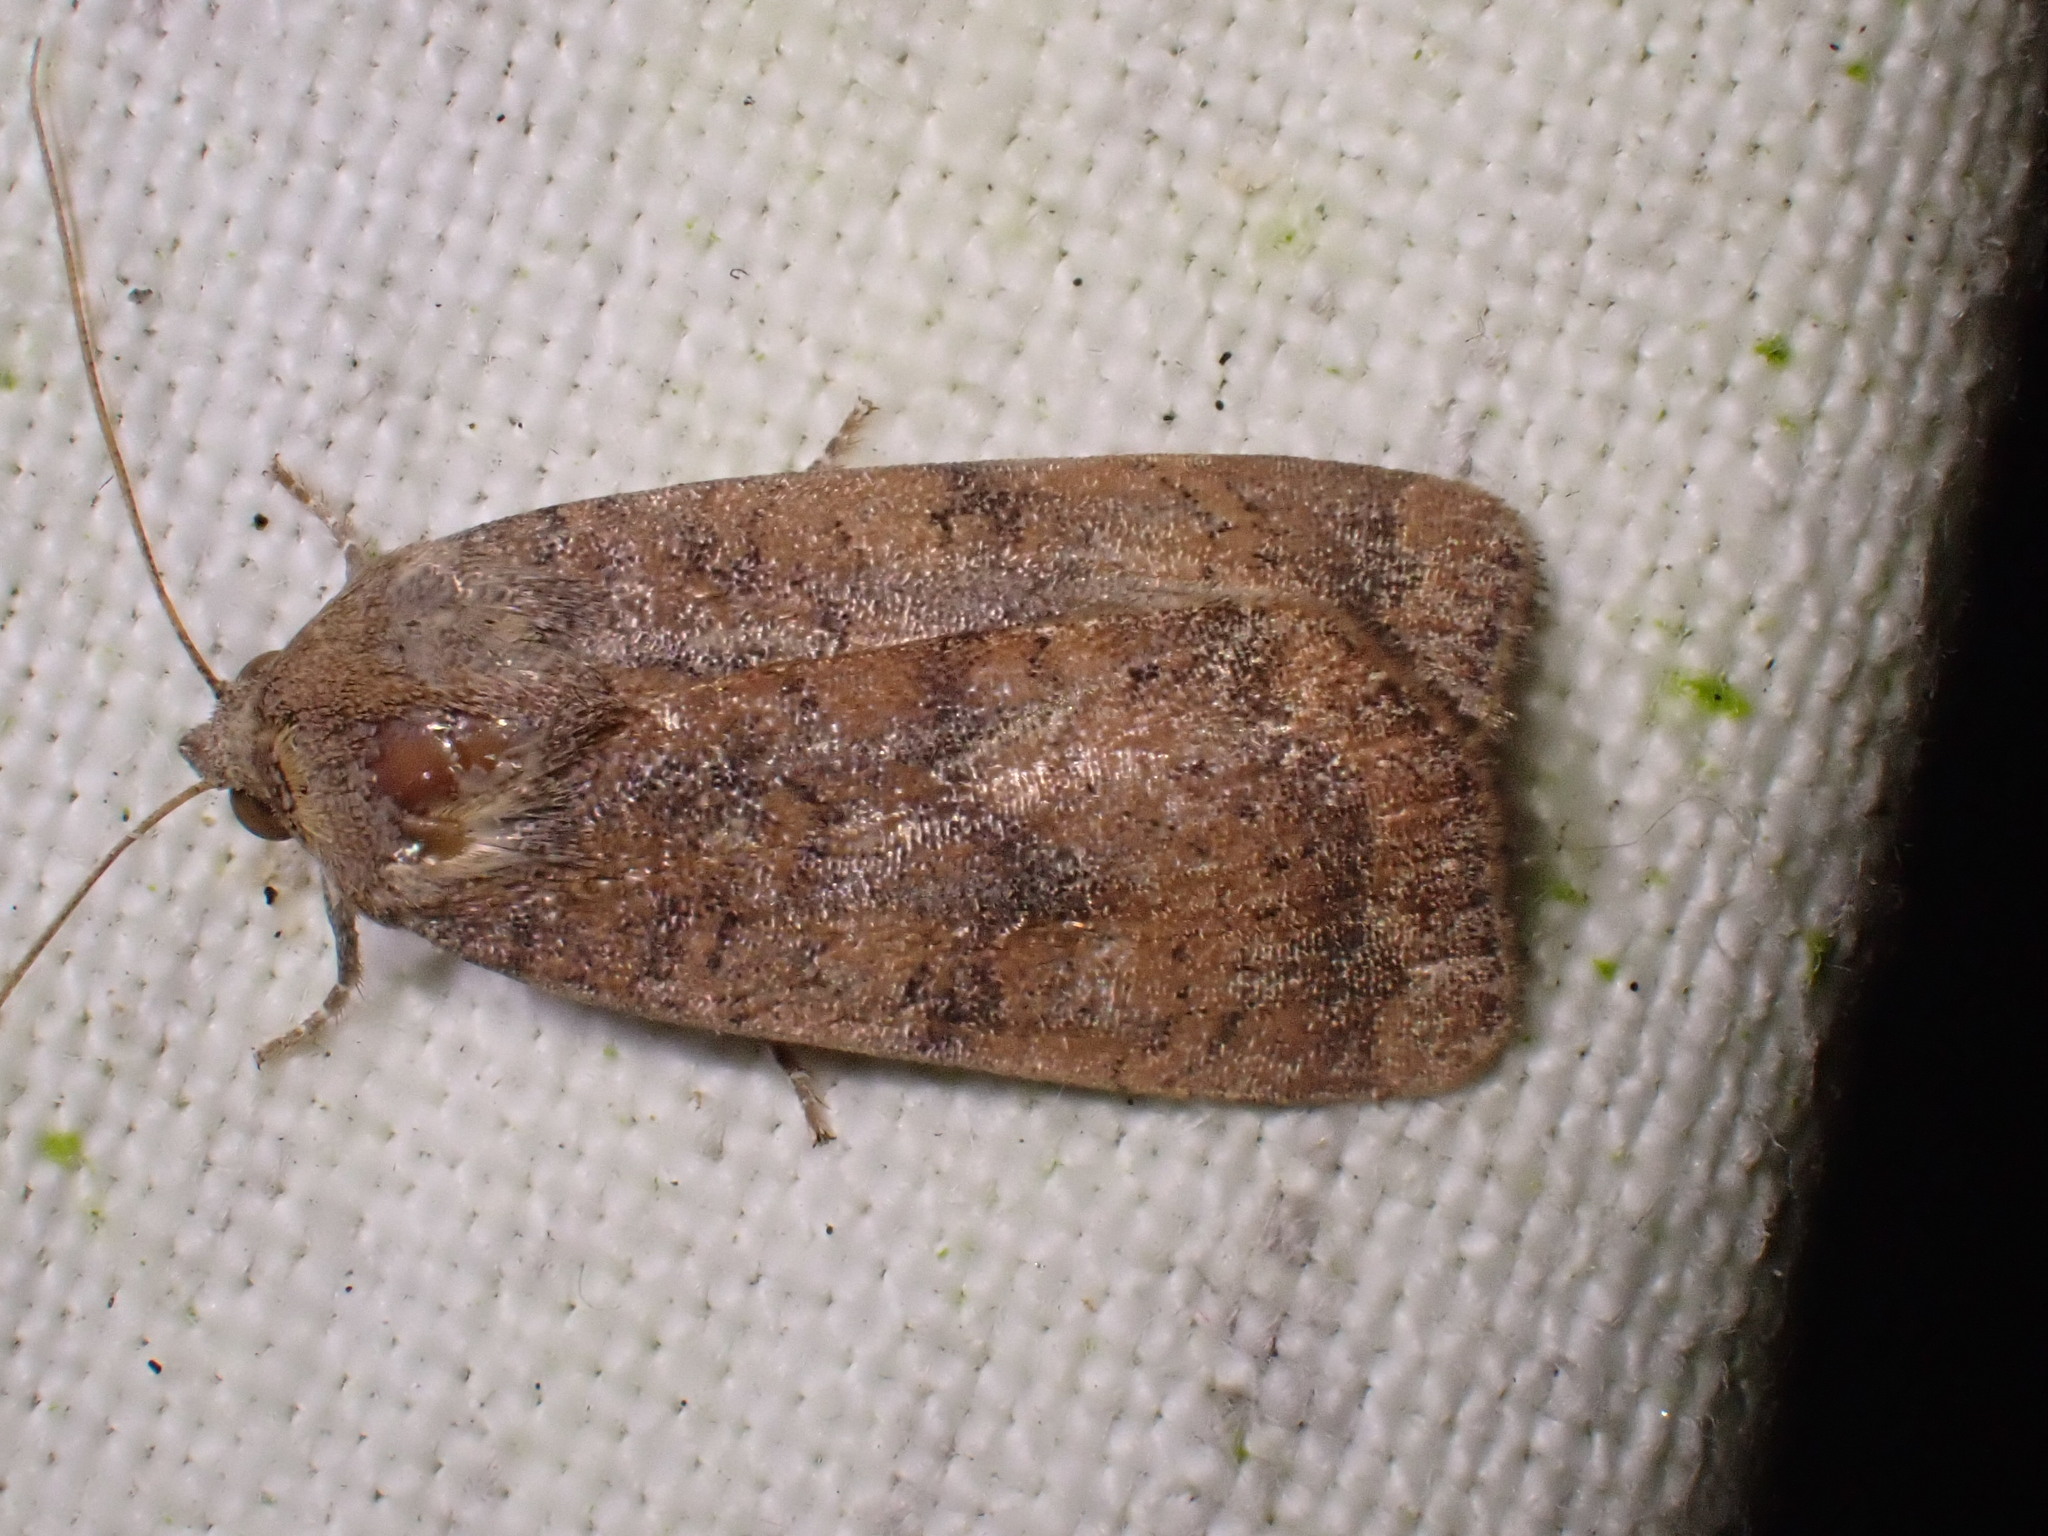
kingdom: Animalia
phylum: Arthropoda
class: Insecta
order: Lepidoptera
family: Noctuidae
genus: Noctua
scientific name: Noctua interjecta
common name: Least yellow underwing
